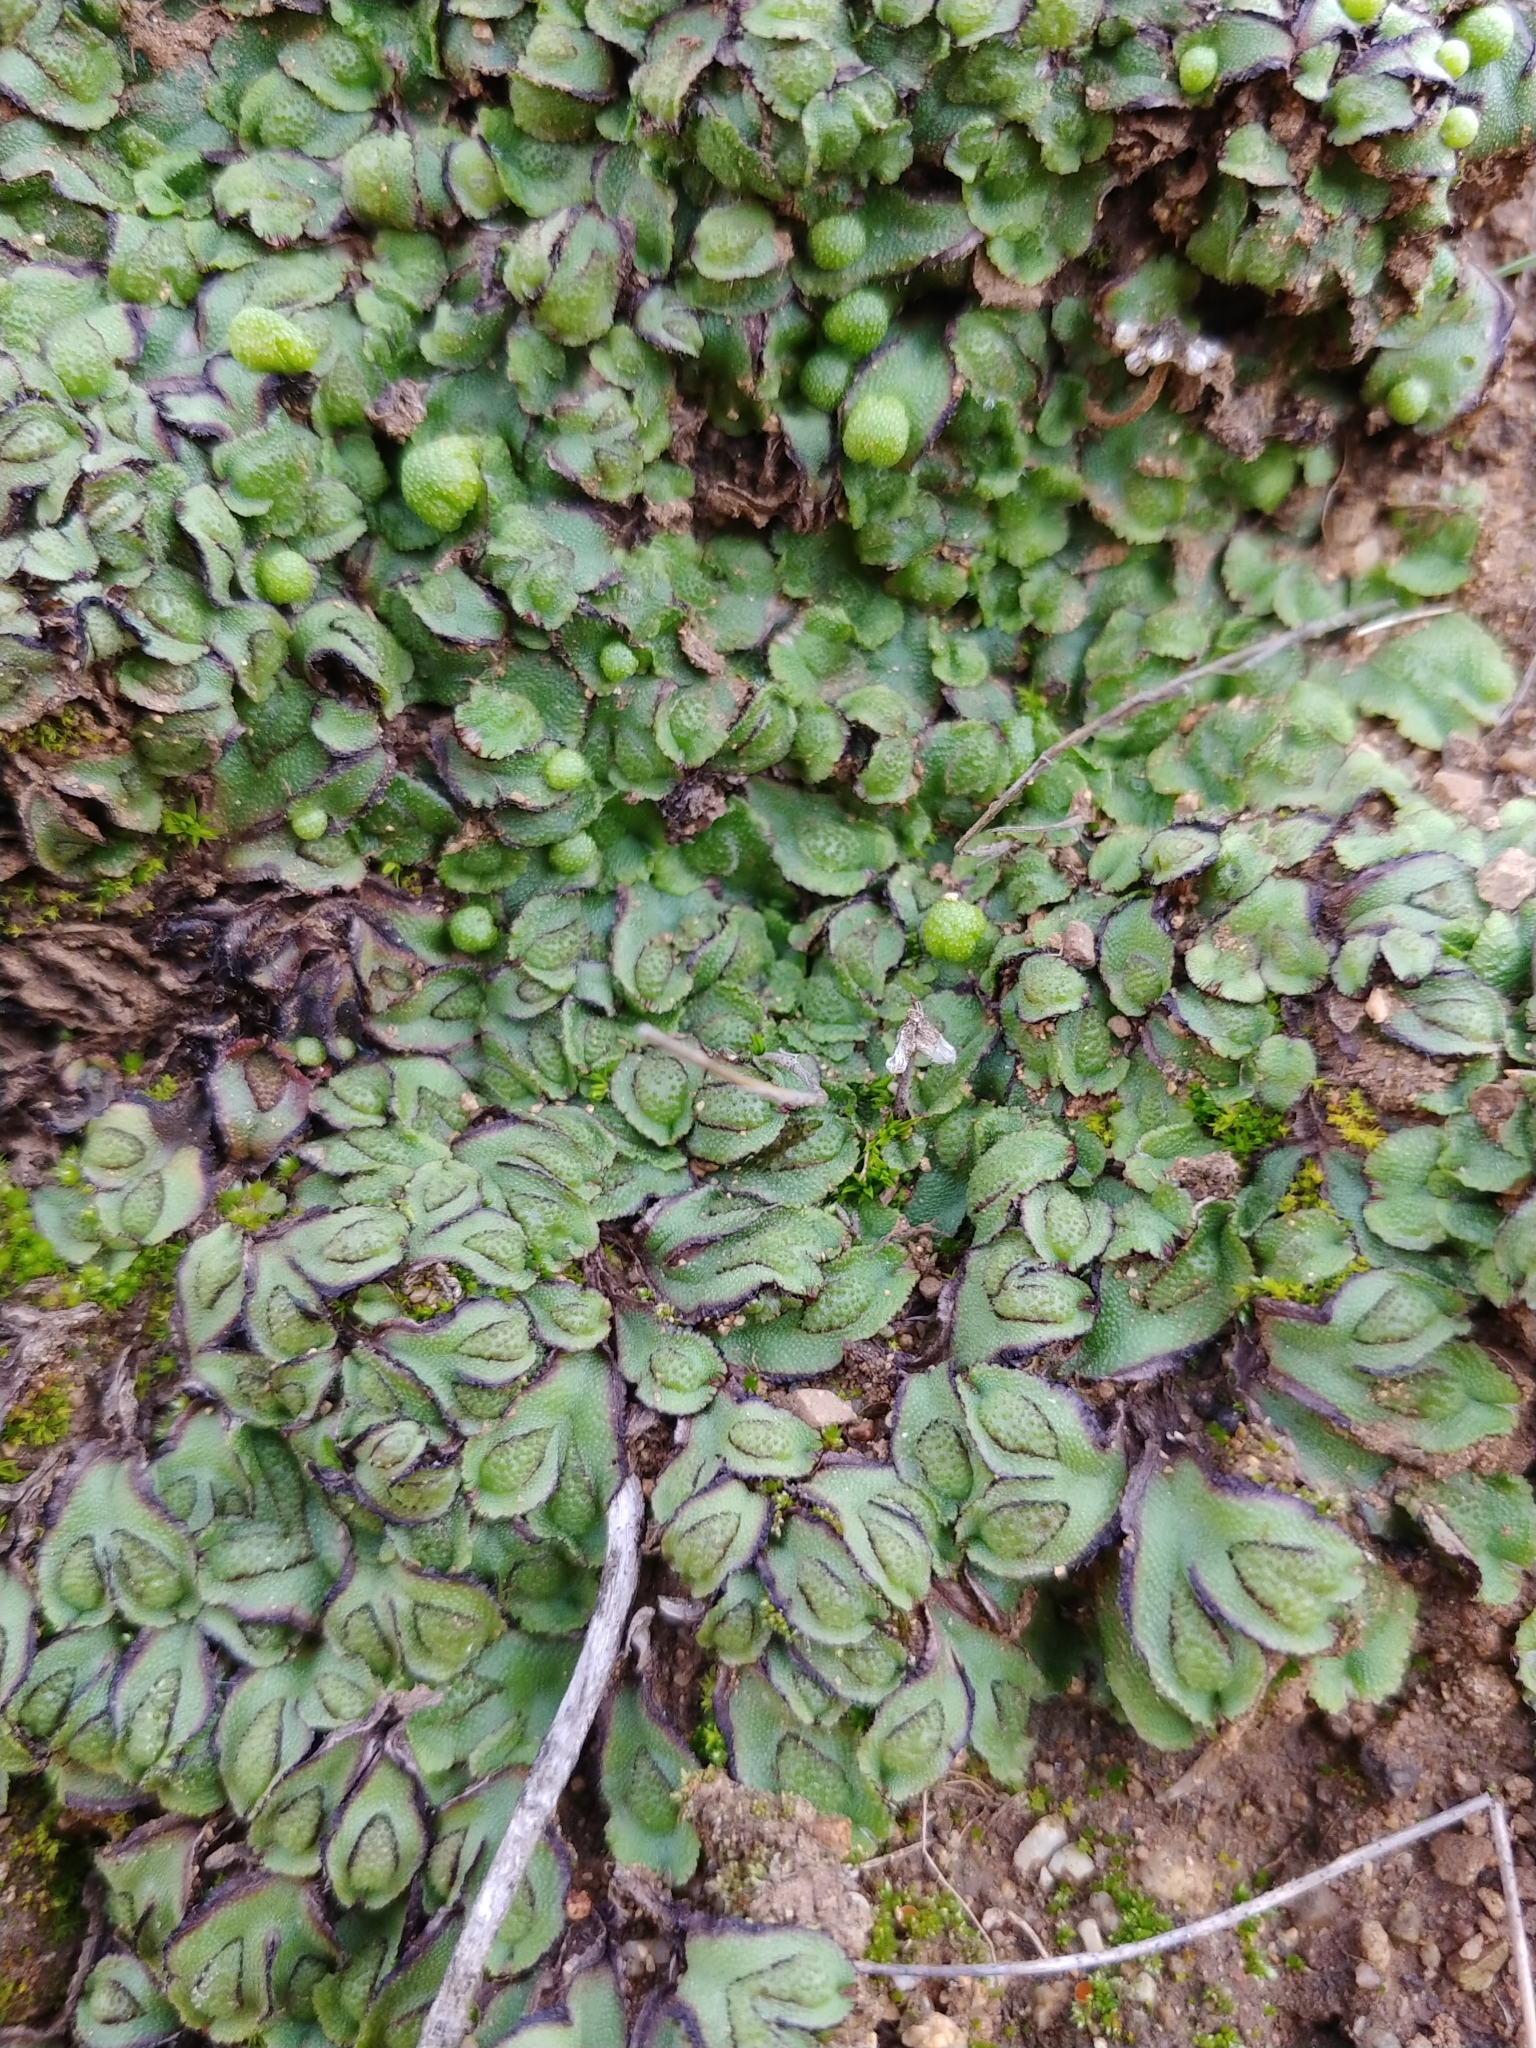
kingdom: Plantae
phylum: Marchantiophyta
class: Marchantiopsida
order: Marchantiales
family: Aytoniaceae
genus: Asterella
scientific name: Asterella californica
